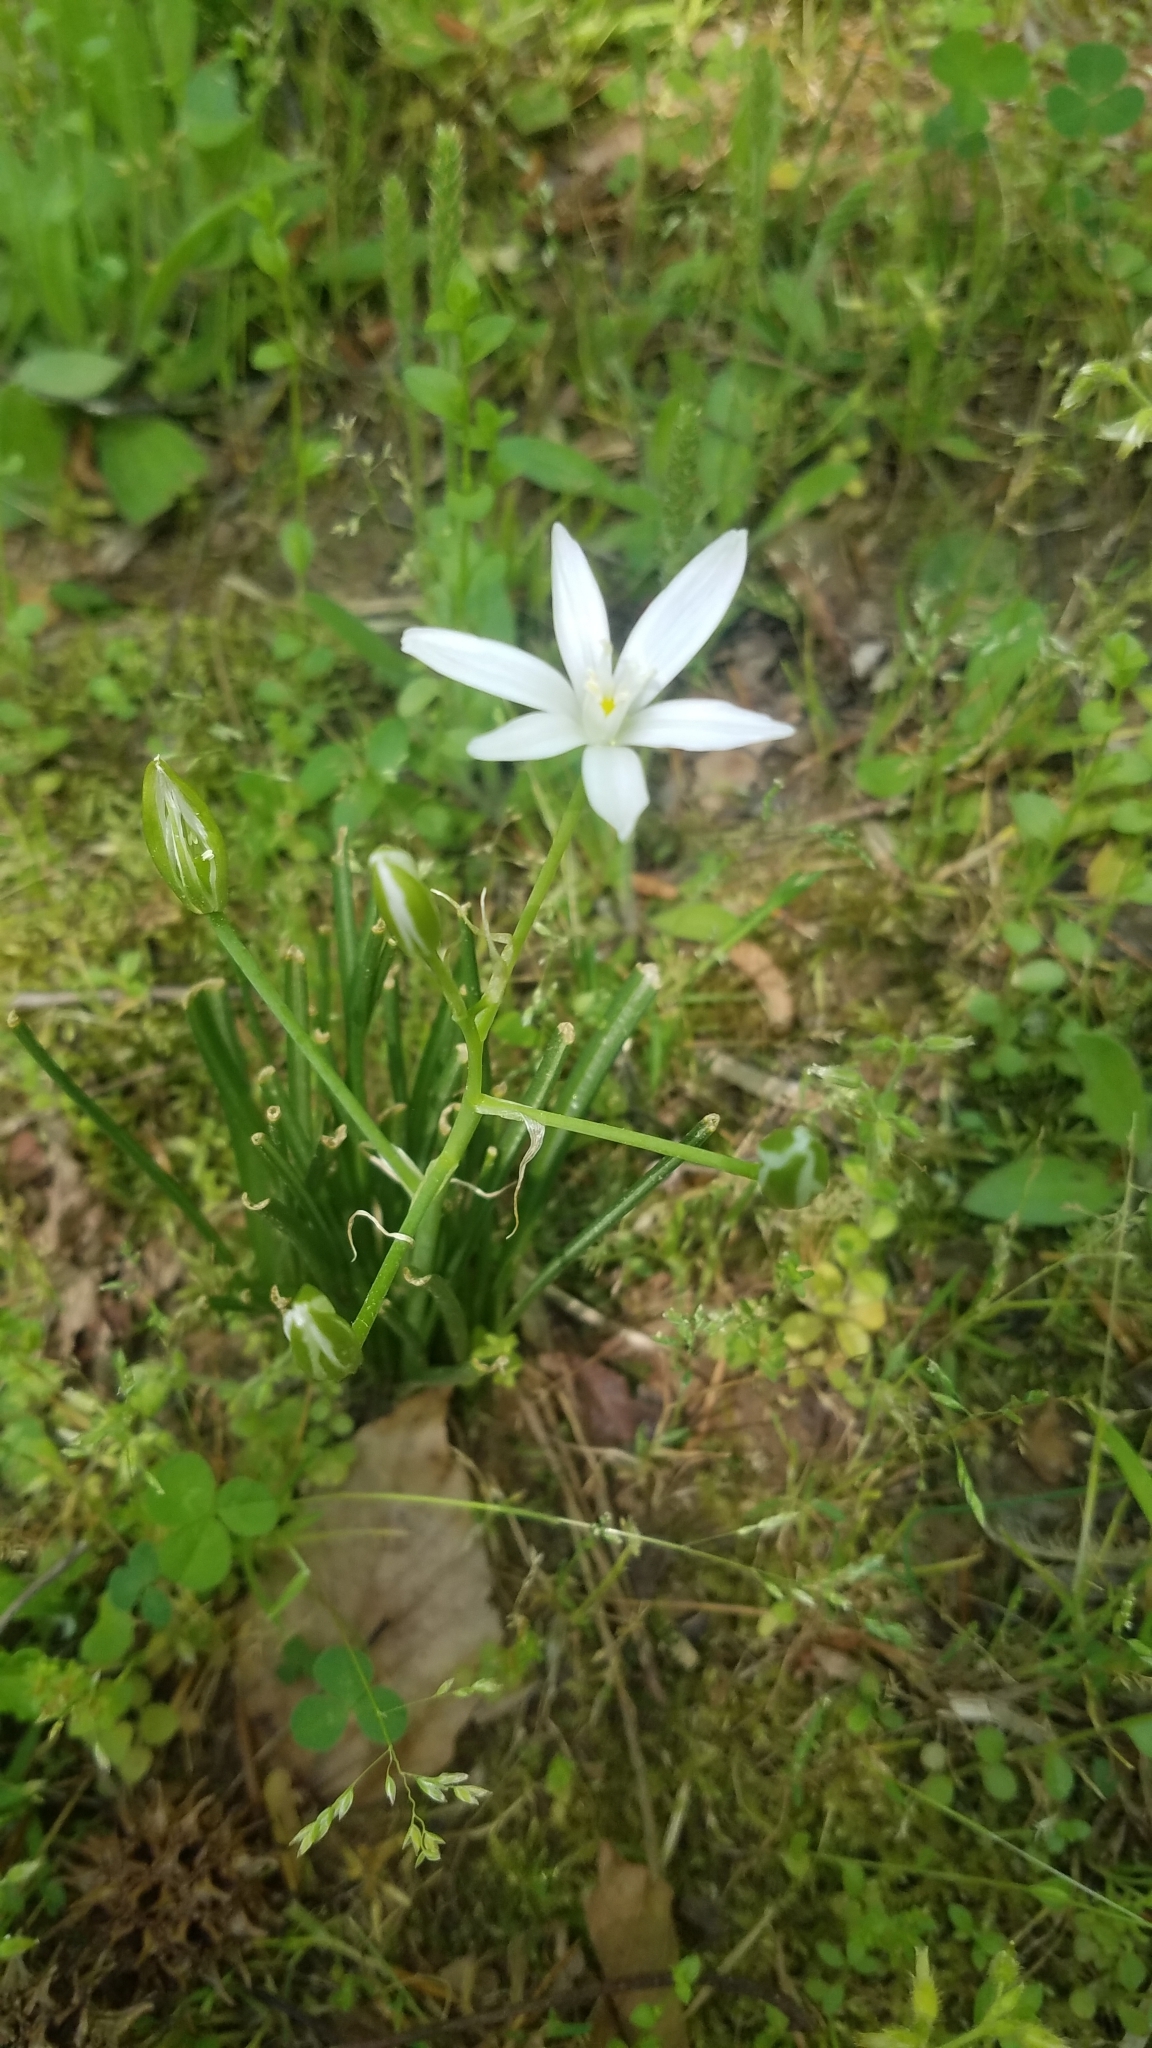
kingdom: Plantae
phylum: Tracheophyta
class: Liliopsida
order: Asparagales
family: Asparagaceae
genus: Ornithogalum
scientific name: Ornithogalum umbellatum
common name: Garden star-of-bethlehem
